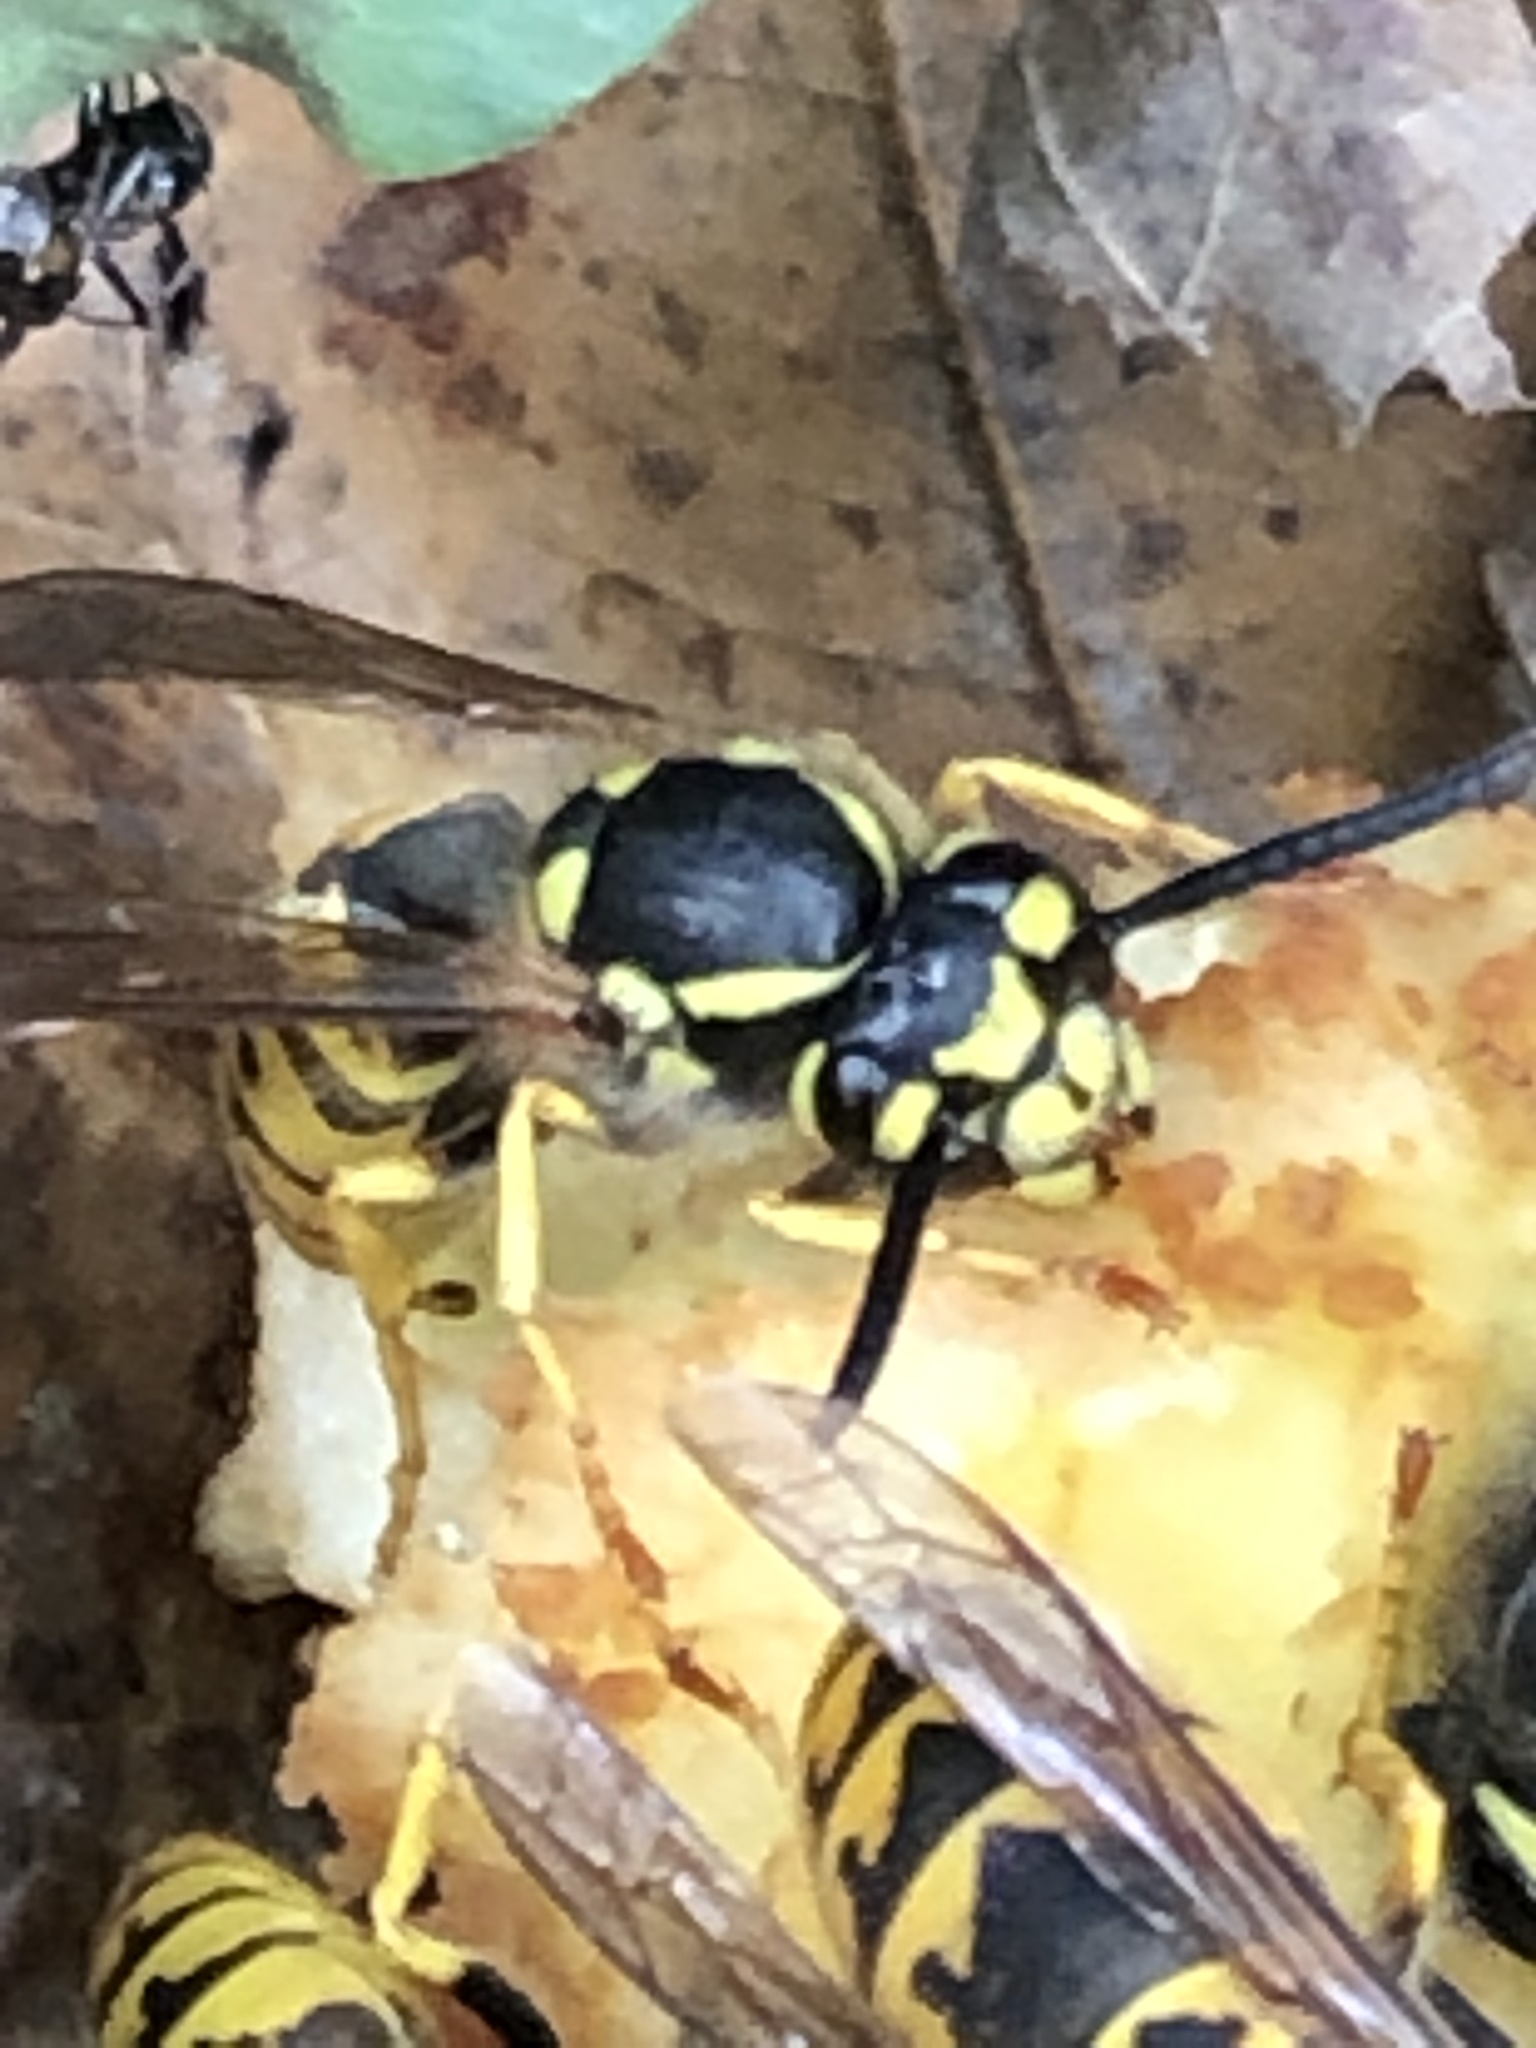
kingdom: Animalia
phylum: Arthropoda
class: Insecta
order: Hymenoptera
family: Vespidae
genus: Vespula
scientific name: Vespula germanica
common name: German wasp
